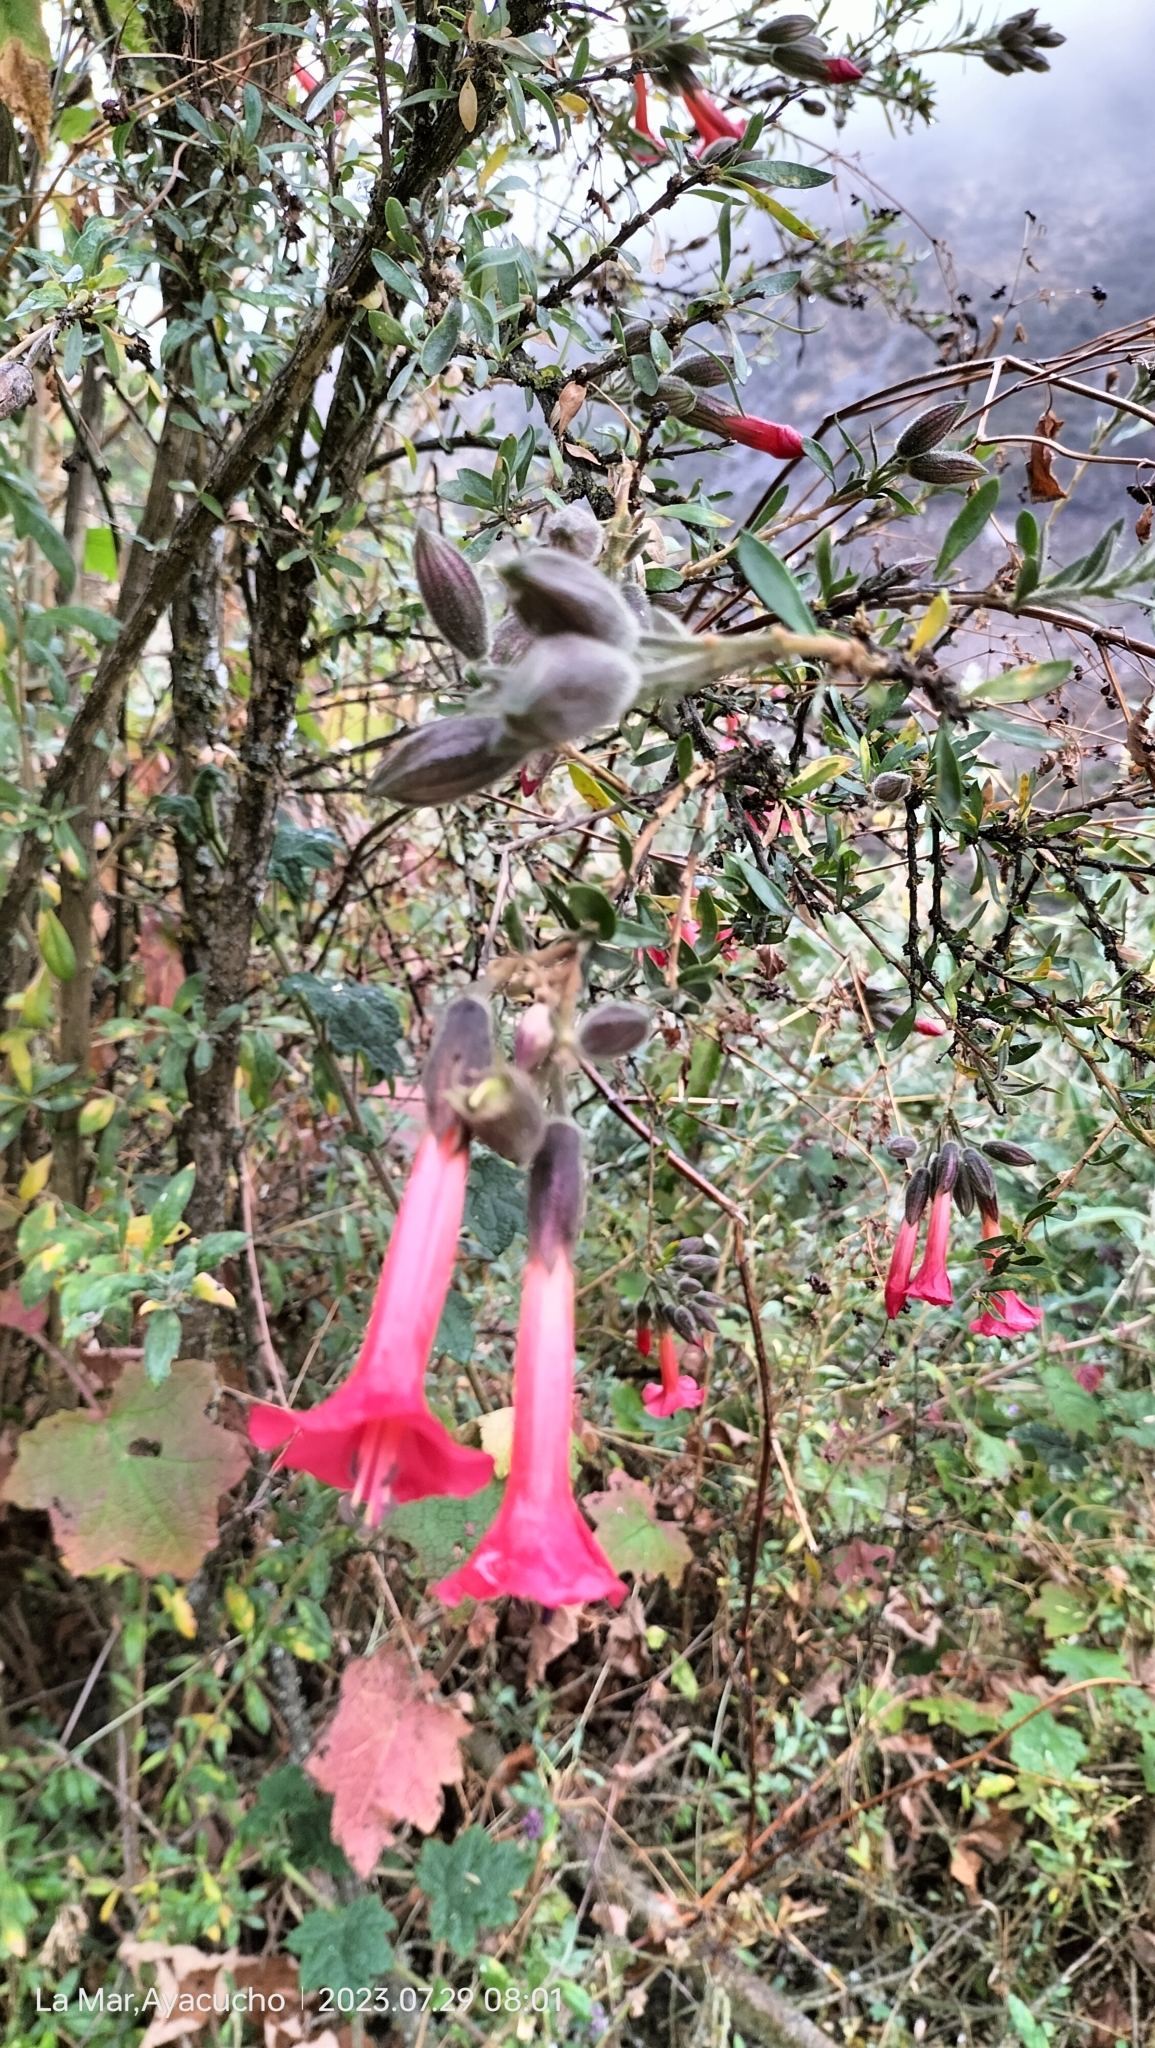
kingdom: Plantae
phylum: Tracheophyta
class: Magnoliopsida
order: Ericales
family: Polemoniaceae
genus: Cantua
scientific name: Cantua buxifolia
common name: Sacred-flower-of-the-incas
